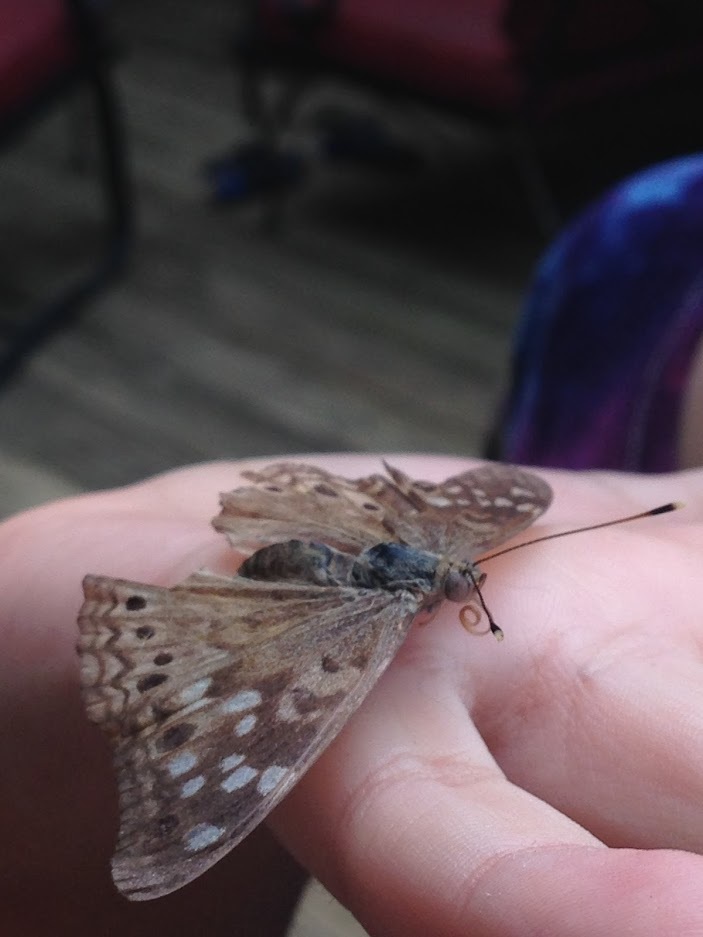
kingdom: Animalia
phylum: Arthropoda
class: Insecta
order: Lepidoptera
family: Nymphalidae
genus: Asterocampa
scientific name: Asterocampa celtis
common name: Hackberry emperor
